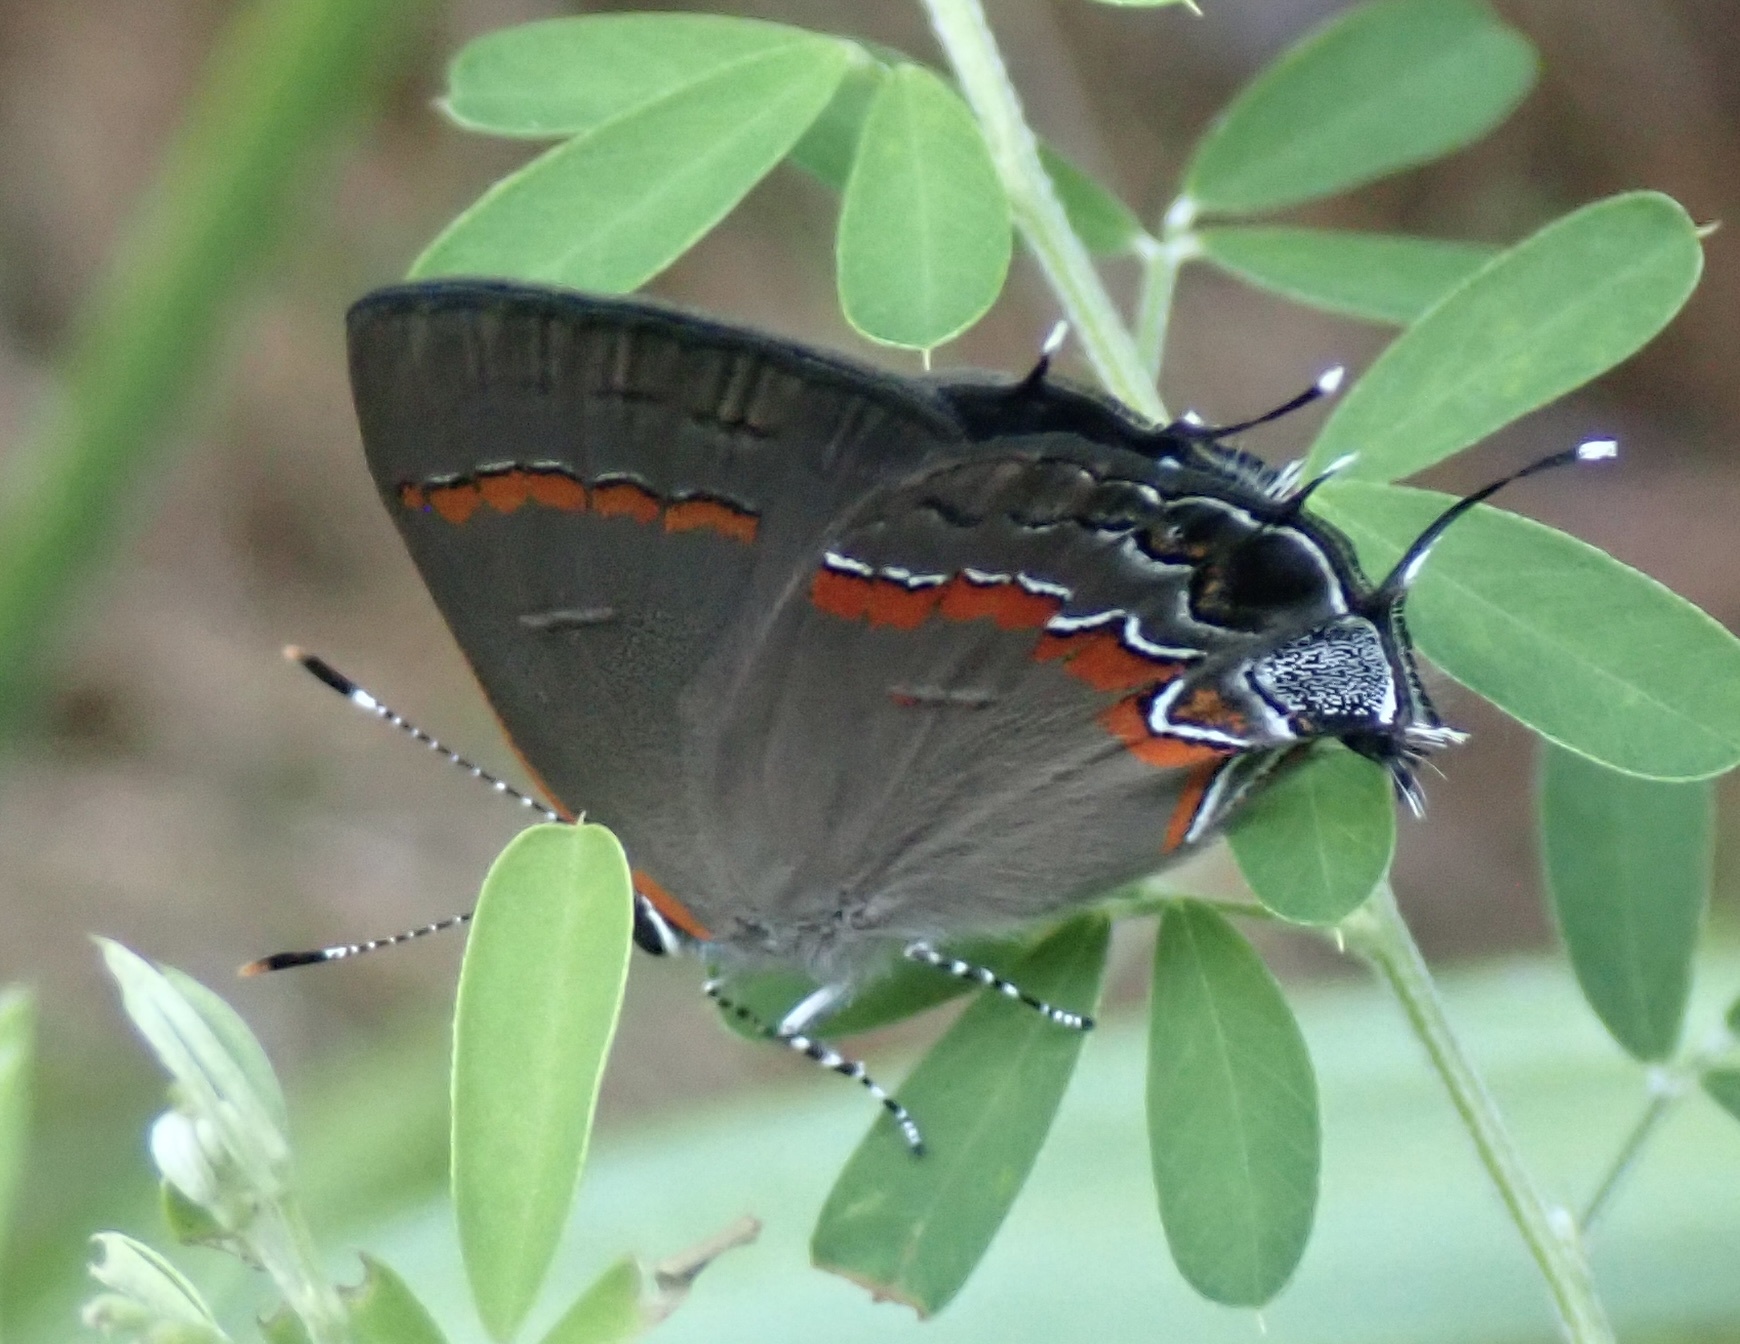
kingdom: Animalia
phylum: Arthropoda
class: Insecta
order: Lepidoptera
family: Lycaenidae
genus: Calycopis
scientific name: Calycopis cecrops
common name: Red-banded hairstreak
